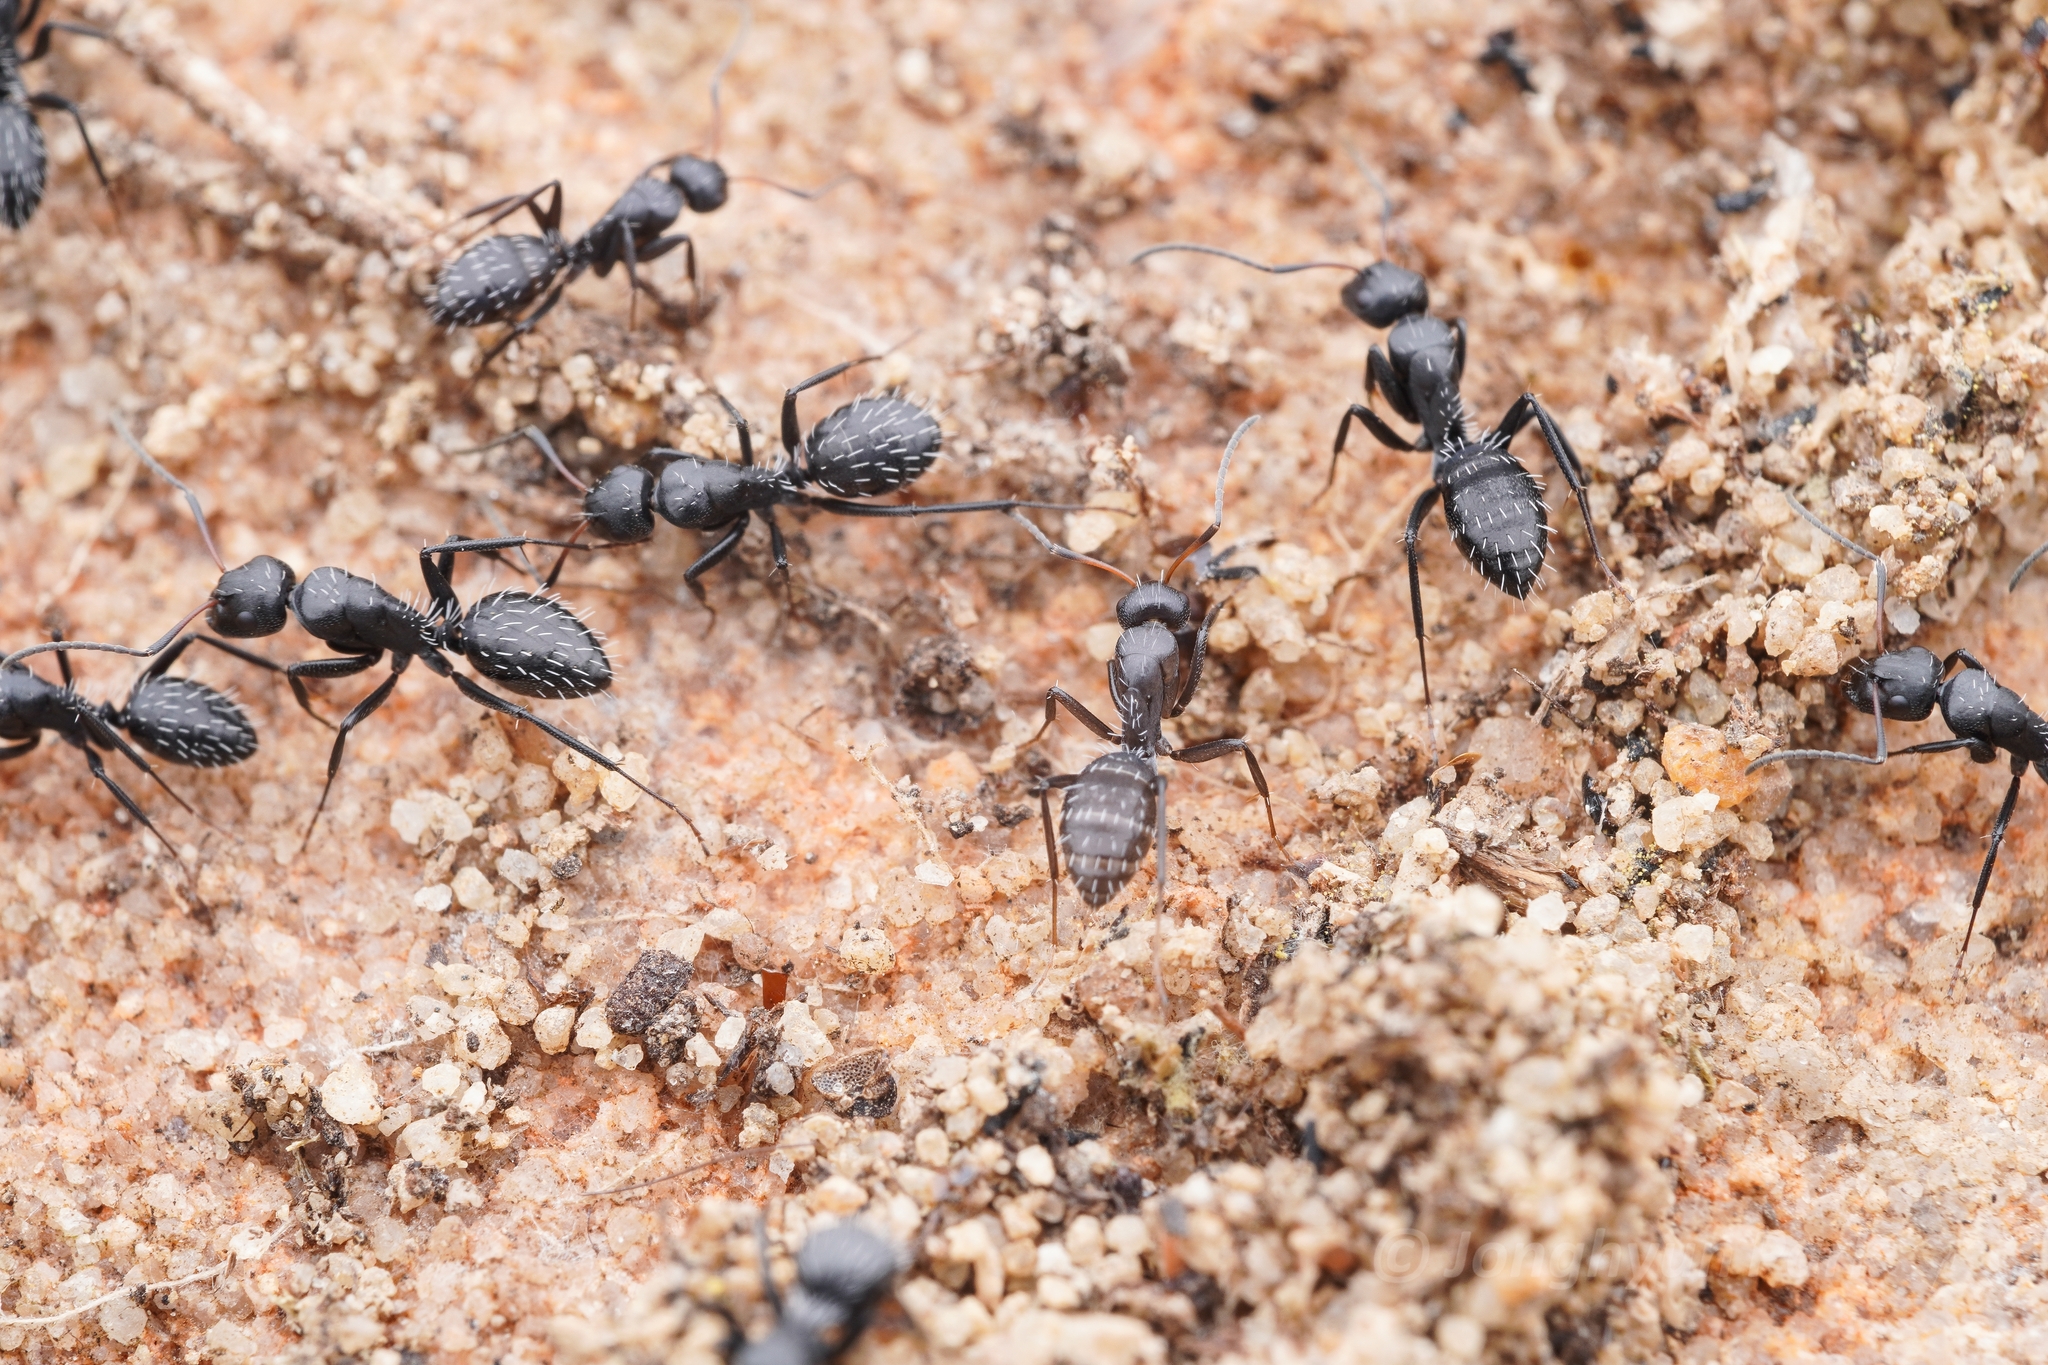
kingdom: Animalia
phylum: Arthropoda
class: Insecta
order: Hymenoptera
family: Formicidae
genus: Camponotus
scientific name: Camponotus niveosetosus
